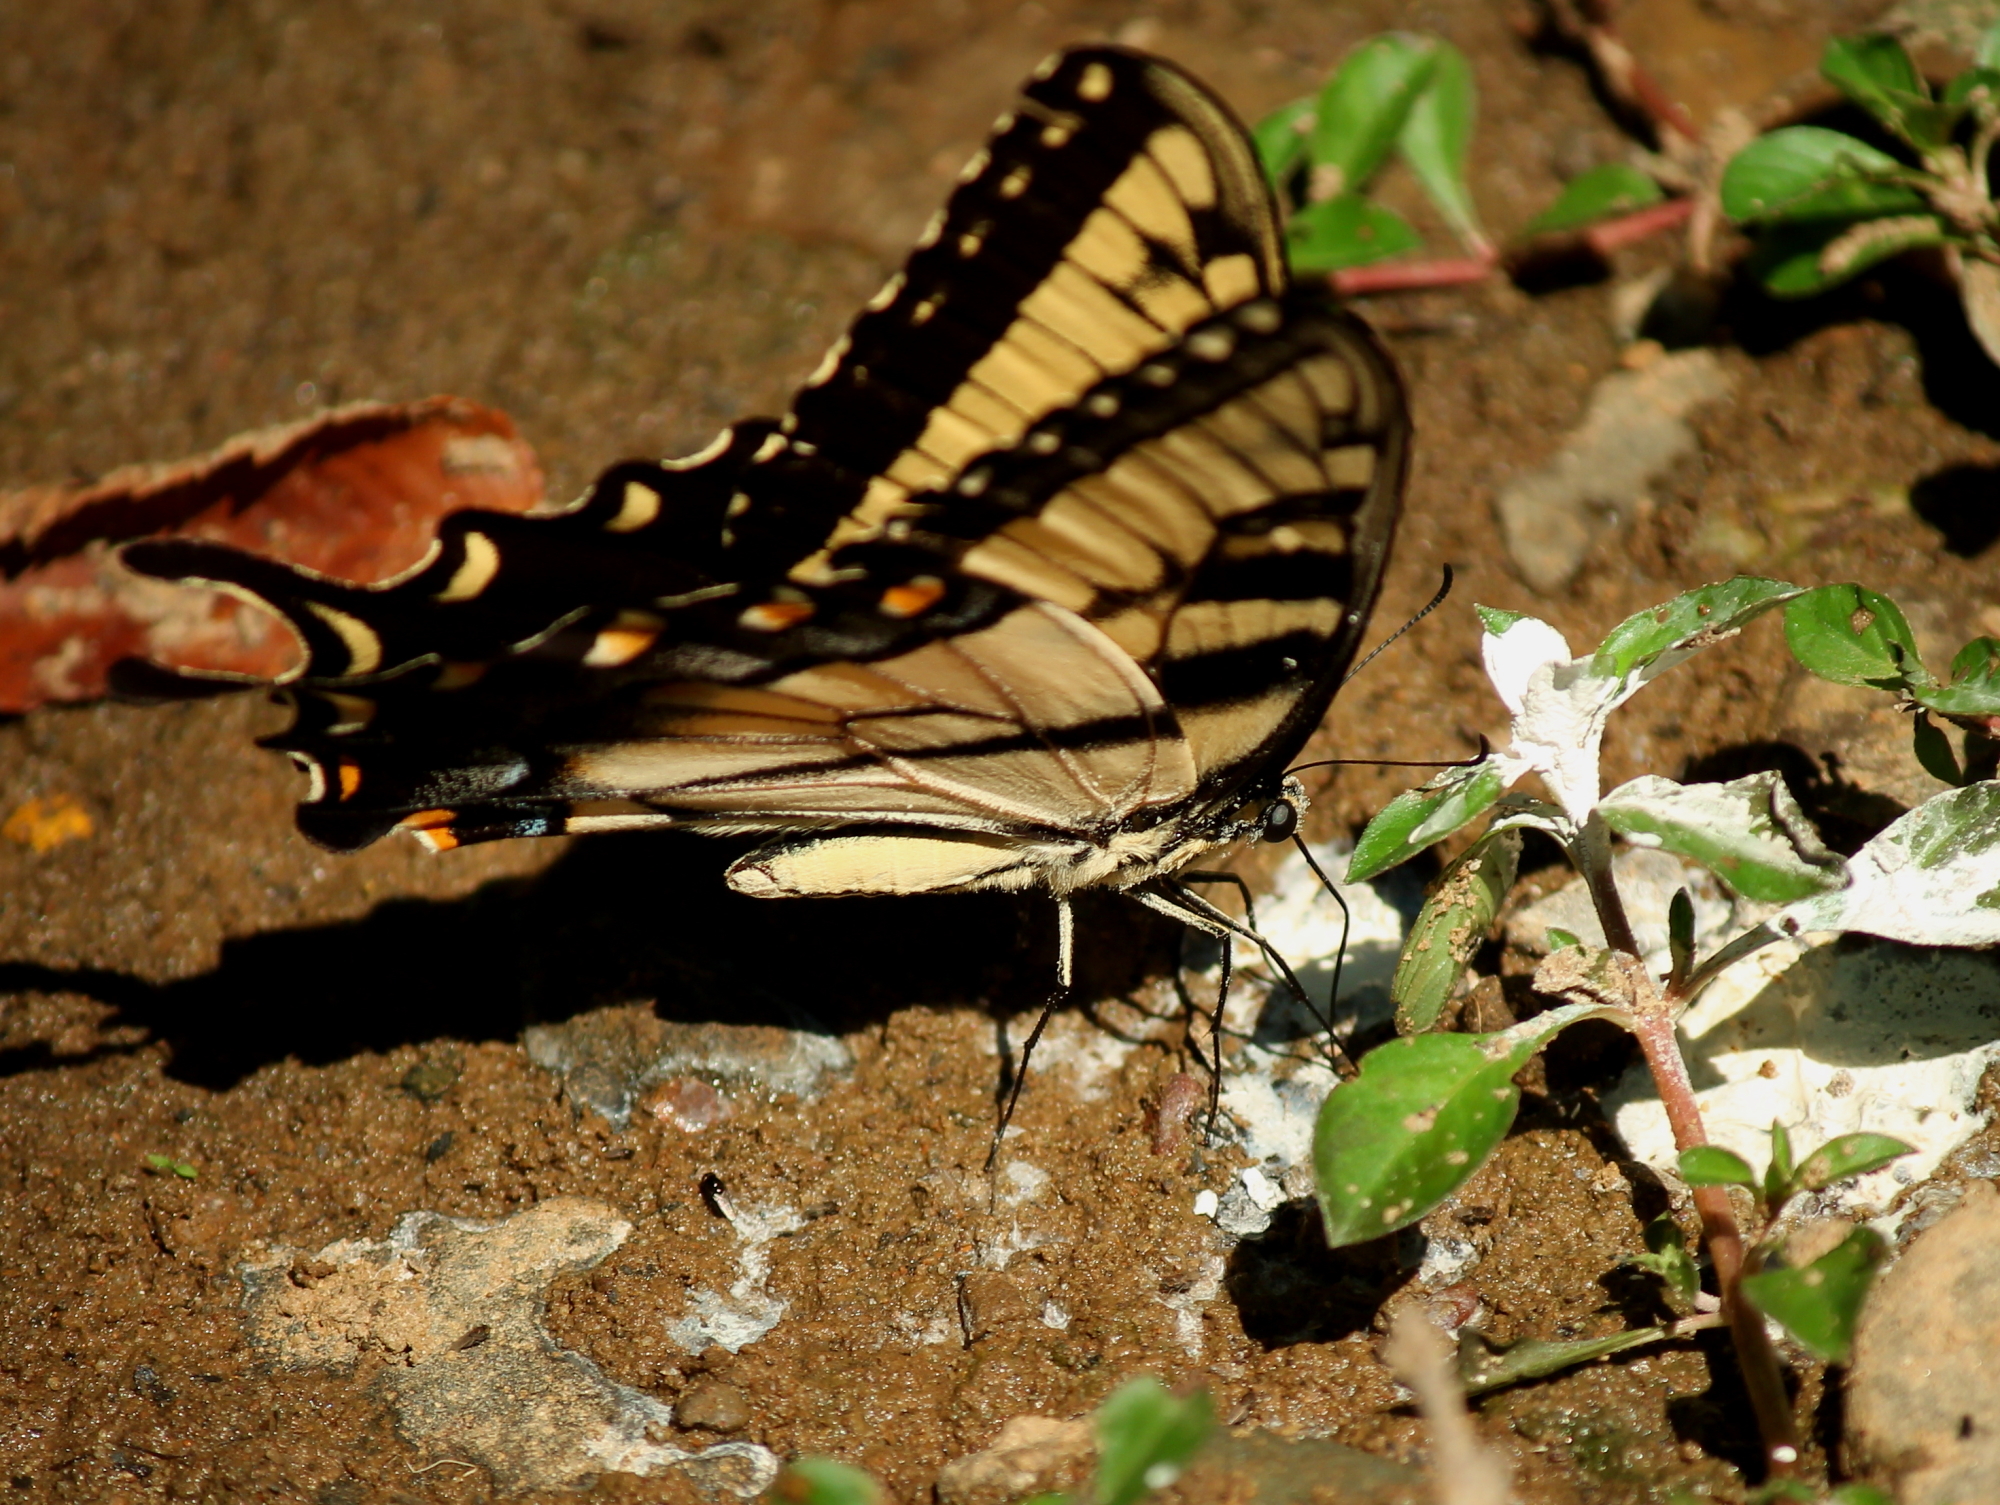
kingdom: Animalia
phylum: Arthropoda
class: Insecta
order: Lepidoptera
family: Papilionidae
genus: Papilio
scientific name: Papilio glaucus
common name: Tiger swallowtail
